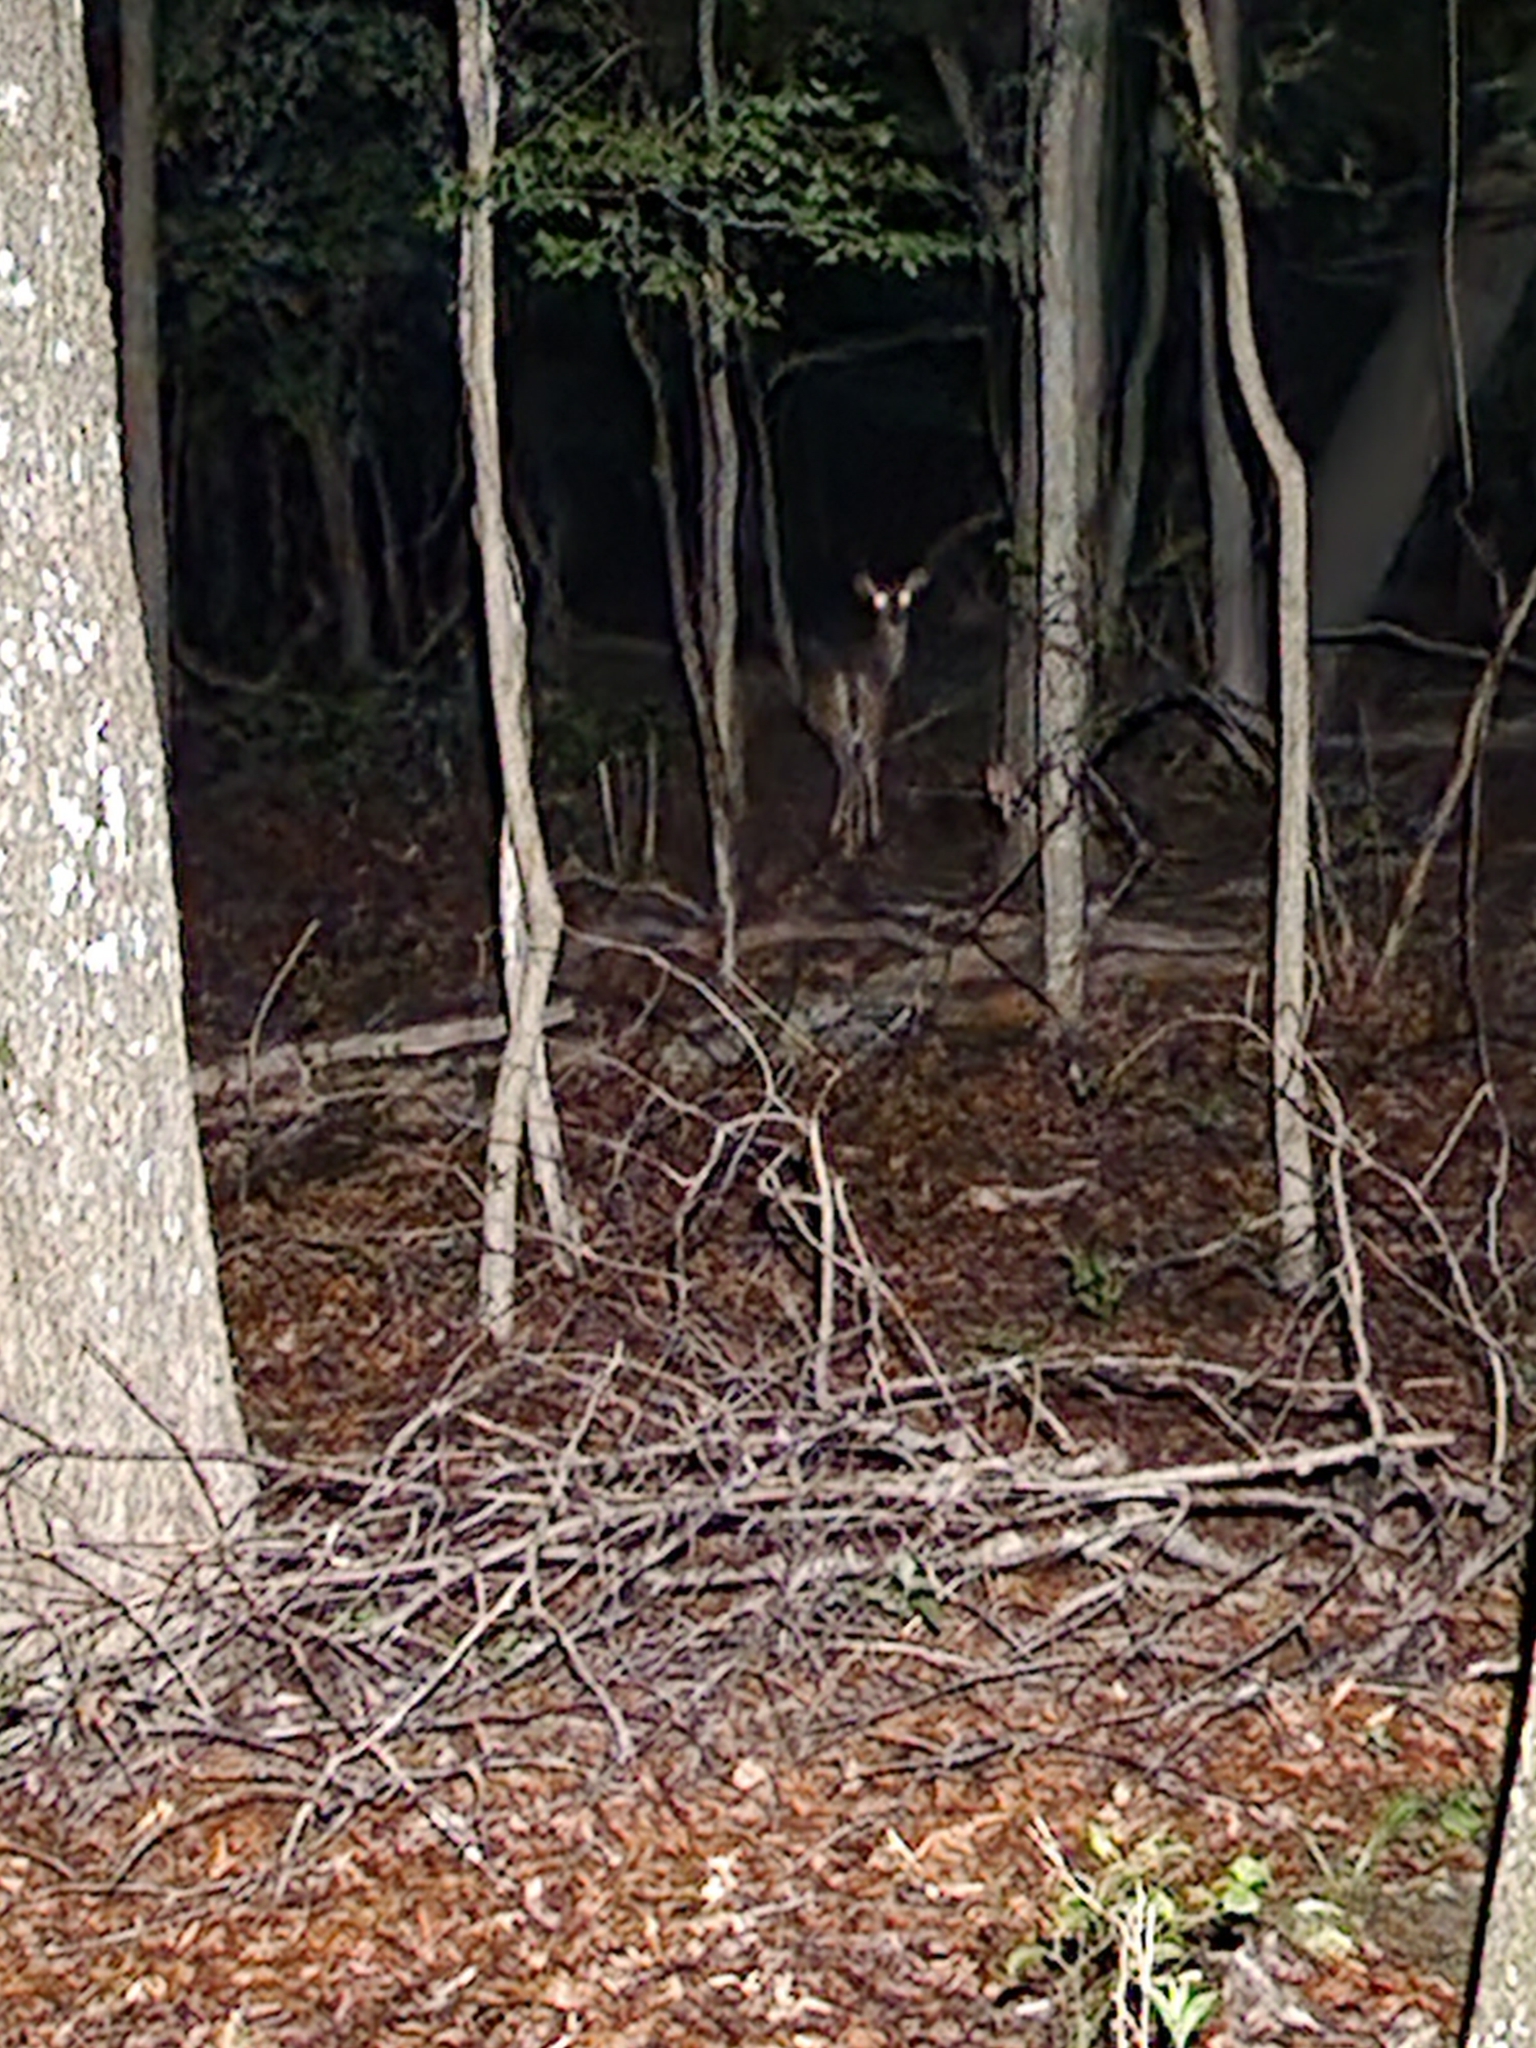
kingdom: Animalia
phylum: Chordata
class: Mammalia
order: Artiodactyla
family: Cervidae
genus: Odocoileus
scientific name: Odocoileus virginianus
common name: White-tailed deer
